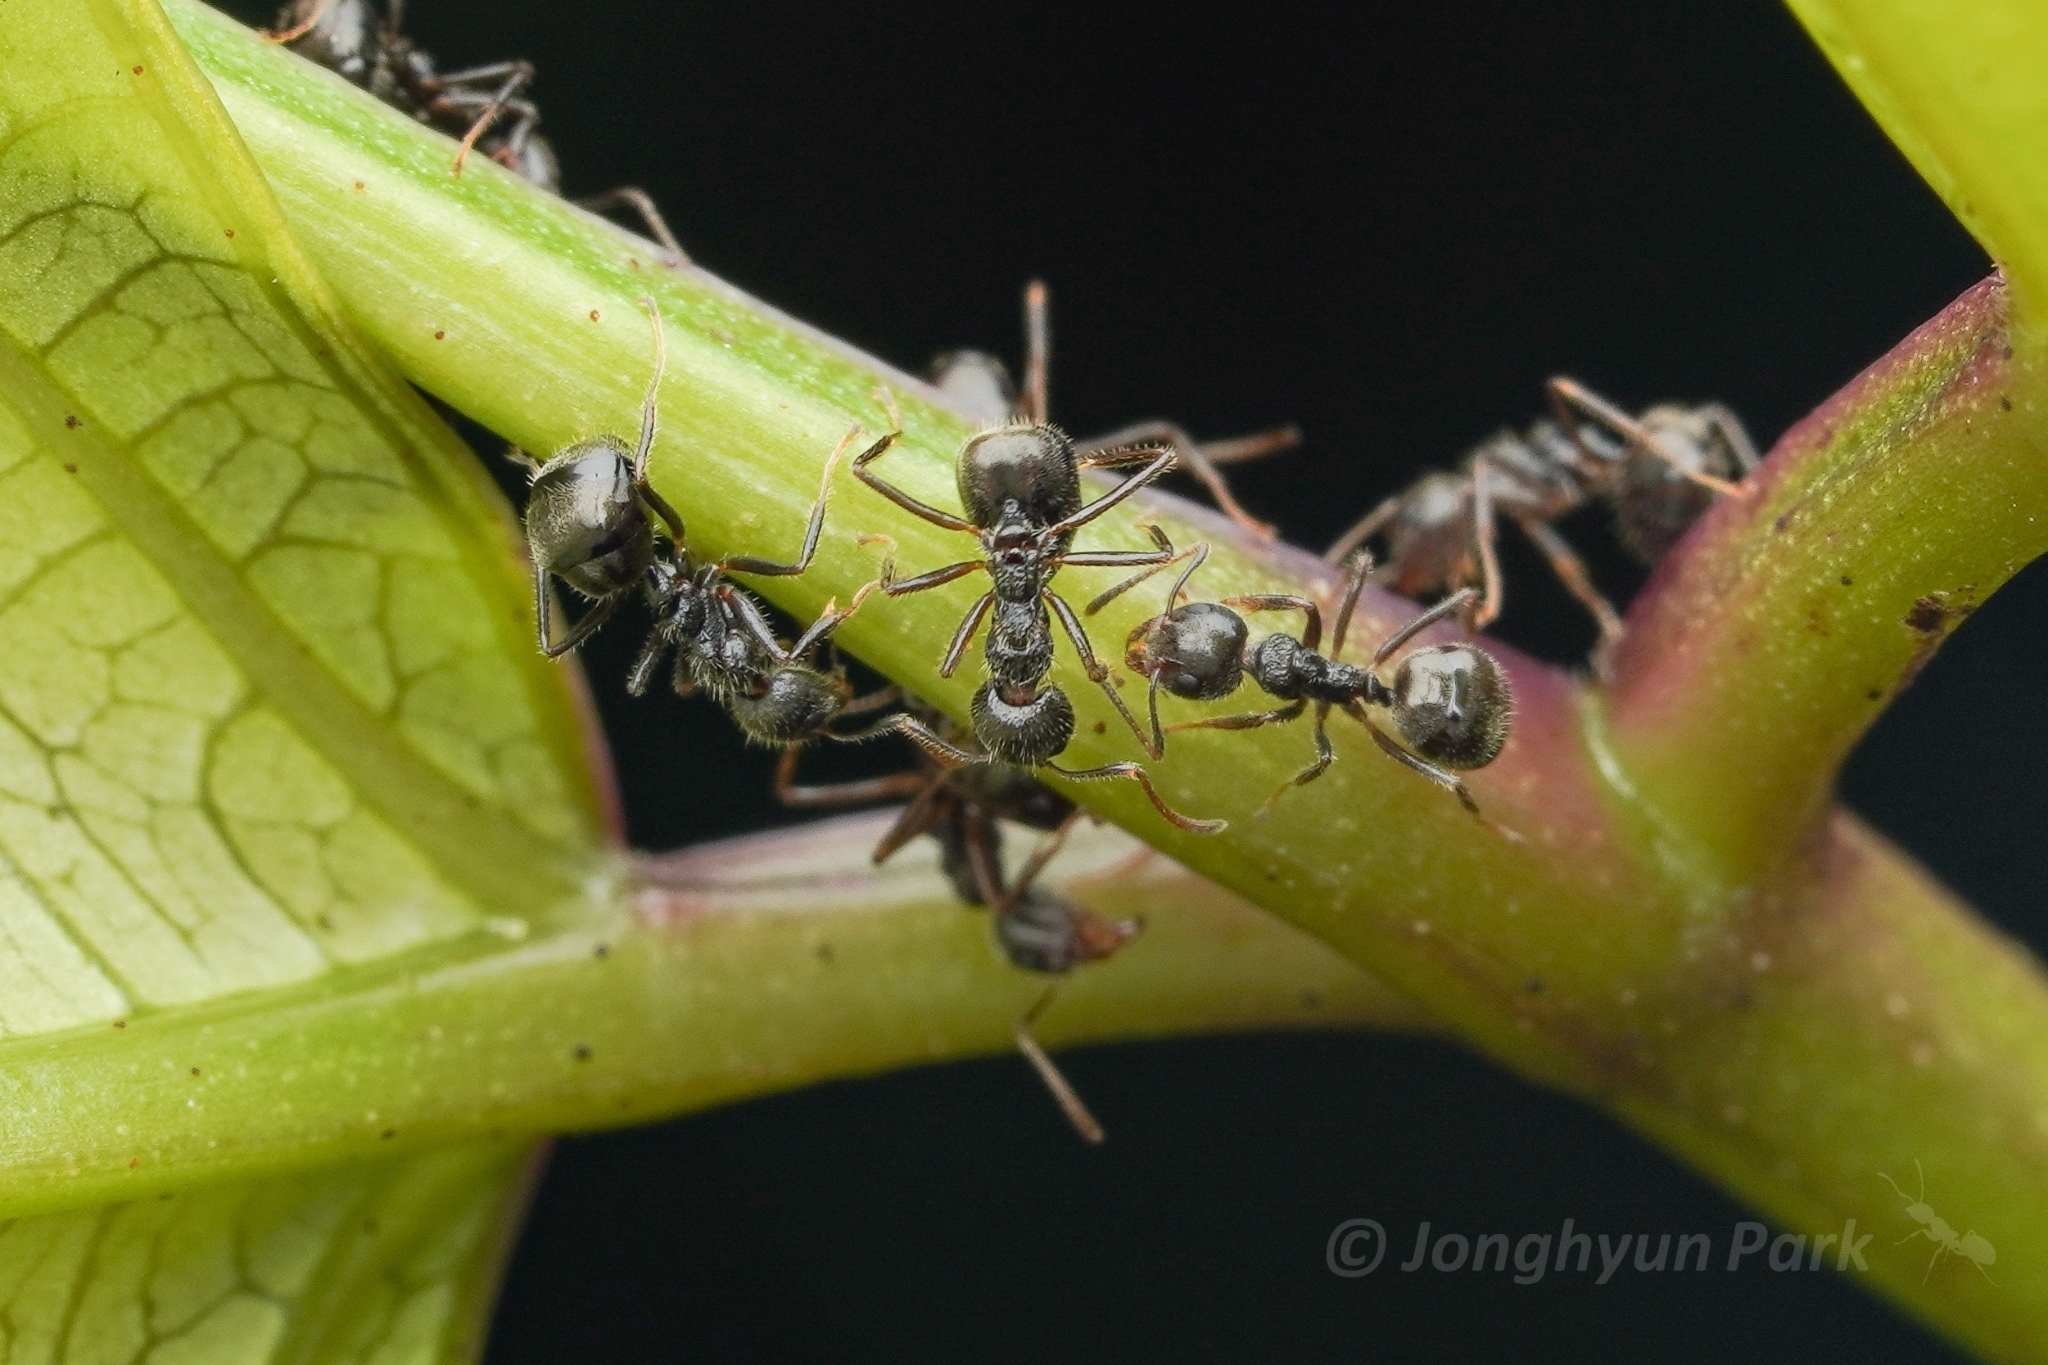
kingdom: Animalia
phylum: Arthropoda
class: Insecta
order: Hymenoptera
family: Formicidae
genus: Dolichoderus
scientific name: Dolichoderus thoracicus
